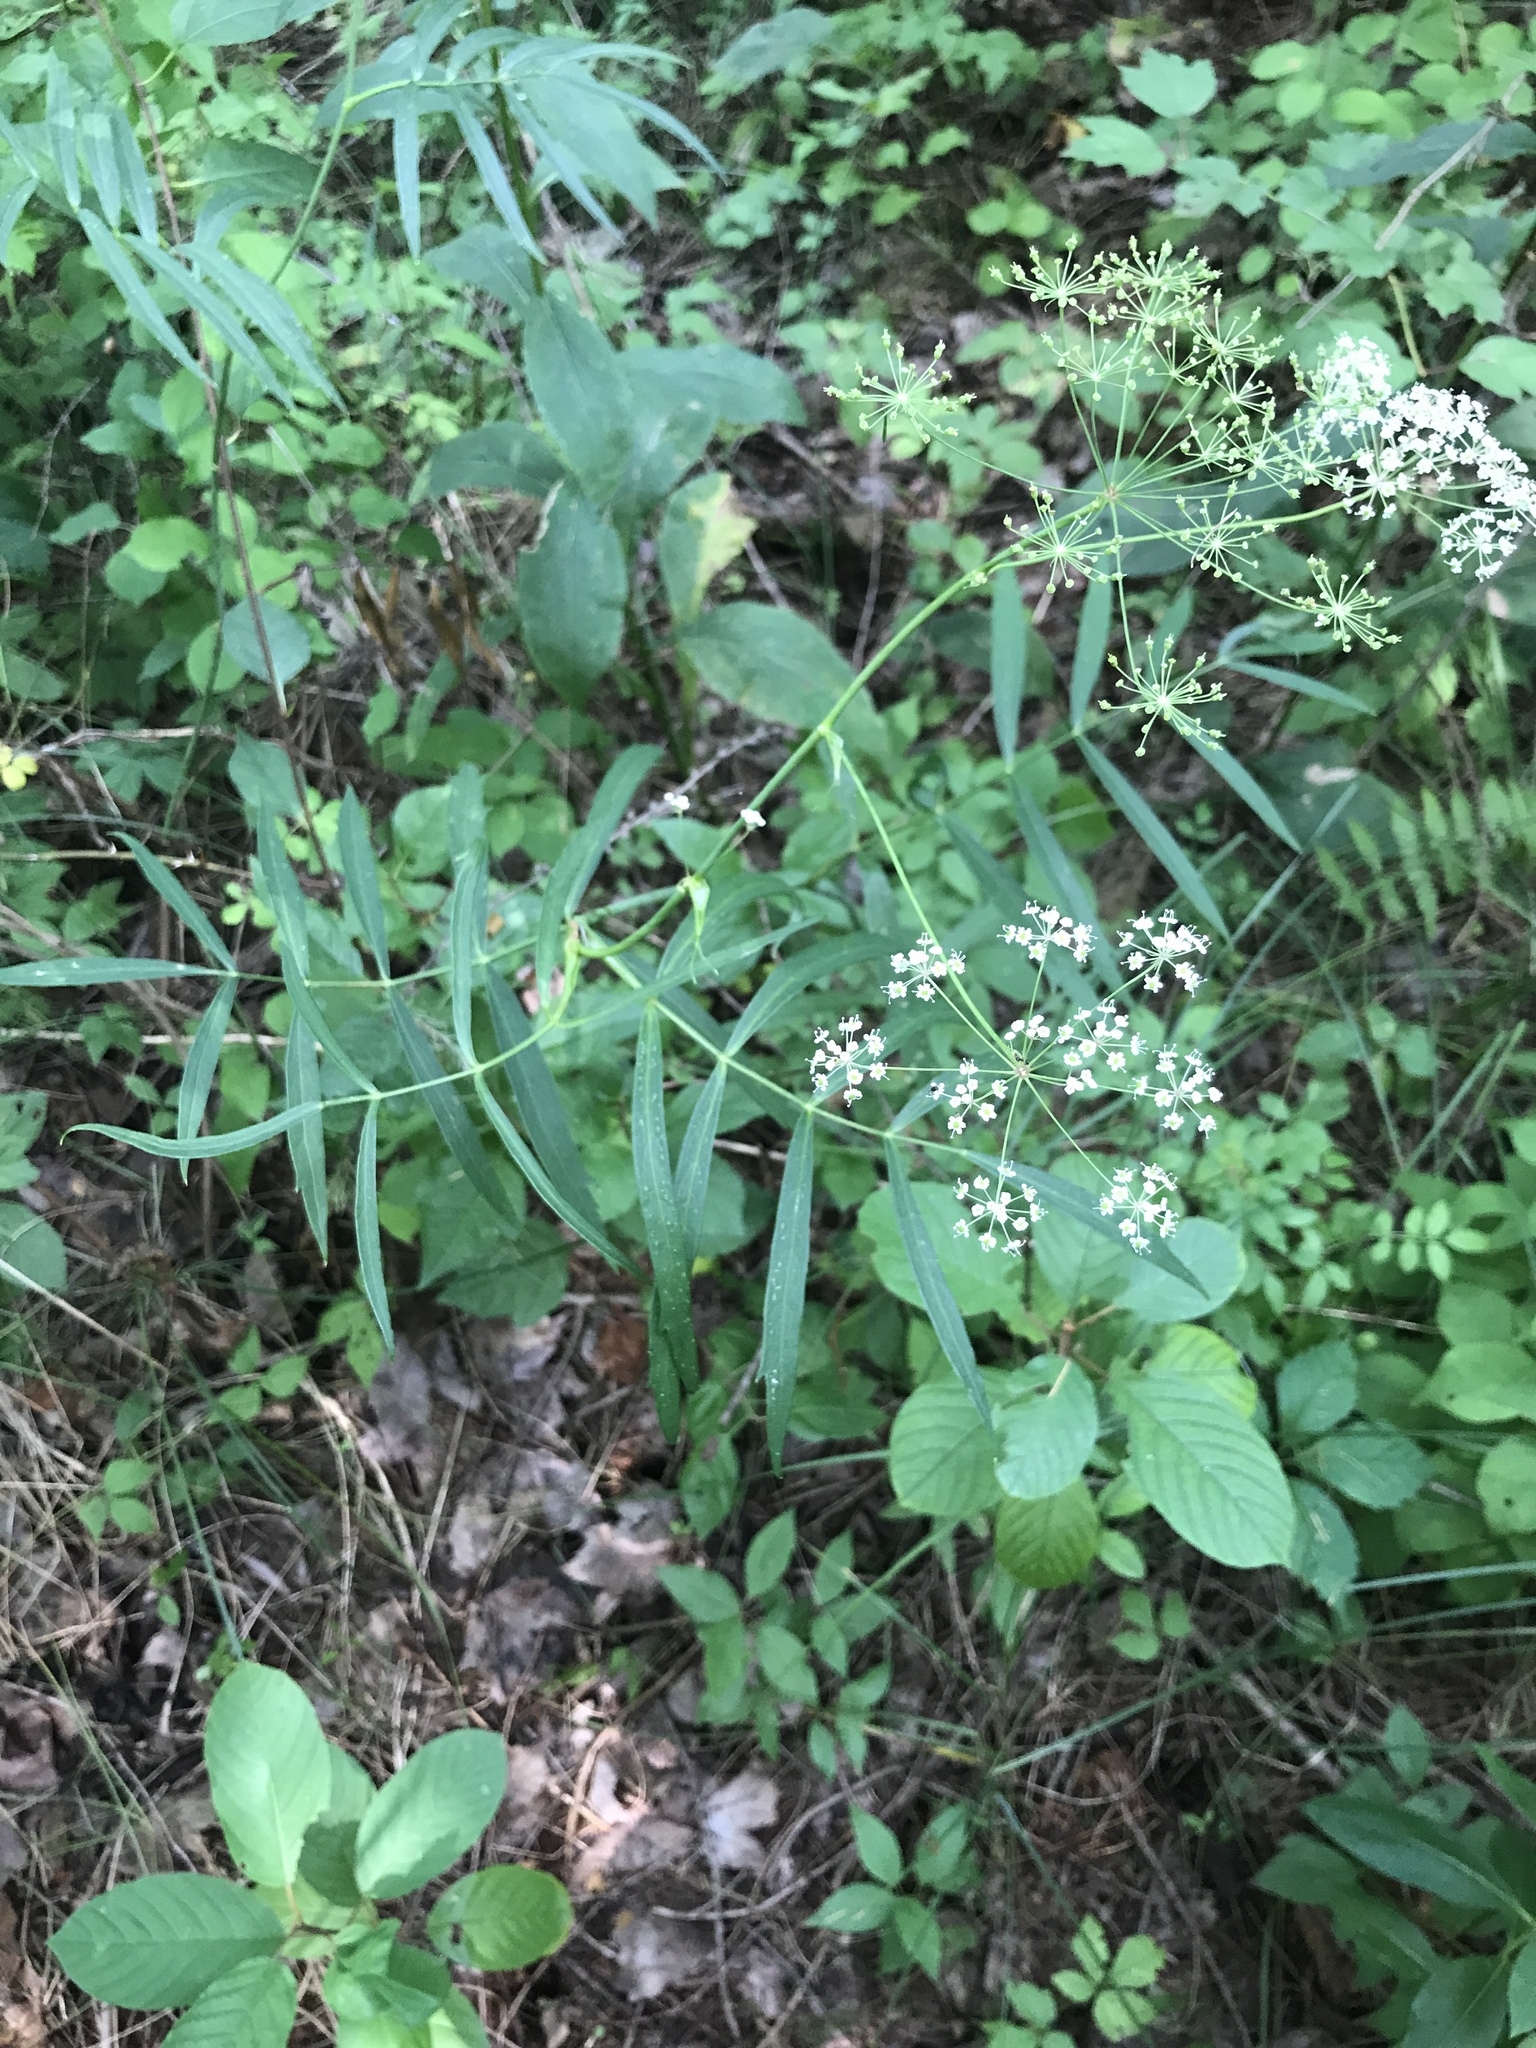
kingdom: Plantae
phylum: Tracheophyta
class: Magnoliopsida
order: Apiales
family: Apiaceae
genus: Oxypolis
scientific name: Oxypolis rigidior
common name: Cowbane
